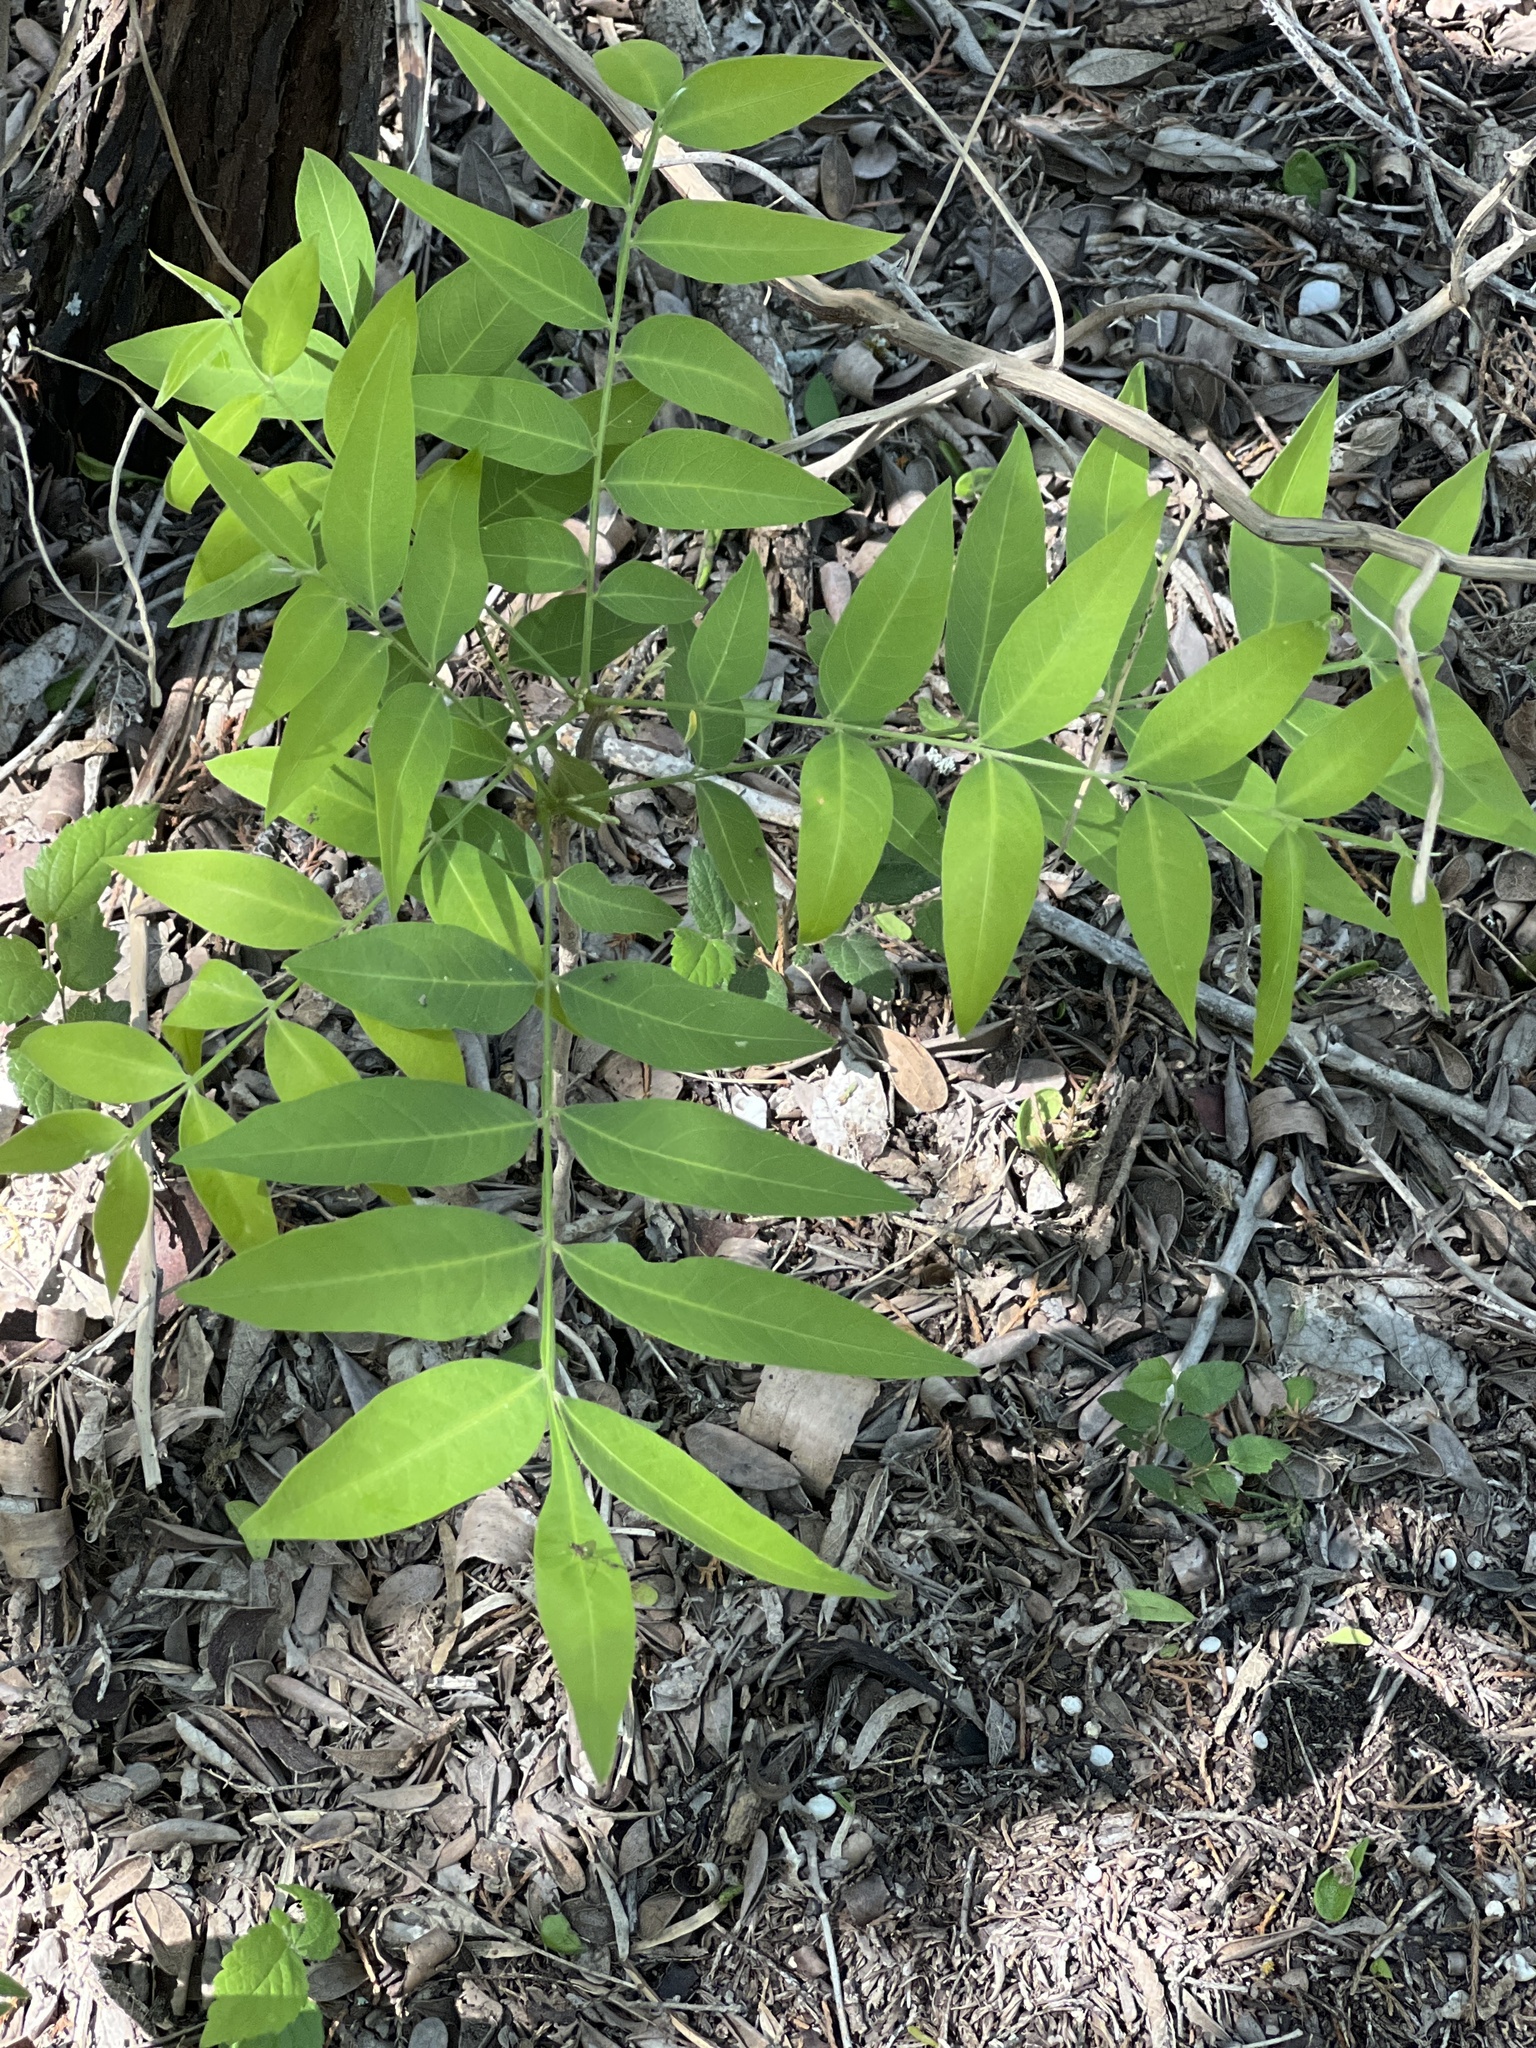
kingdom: Plantae
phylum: Tracheophyta
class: Magnoliopsida
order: Sapindales
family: Sapindaceae
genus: Sapindus
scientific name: Sapindus drummondii
